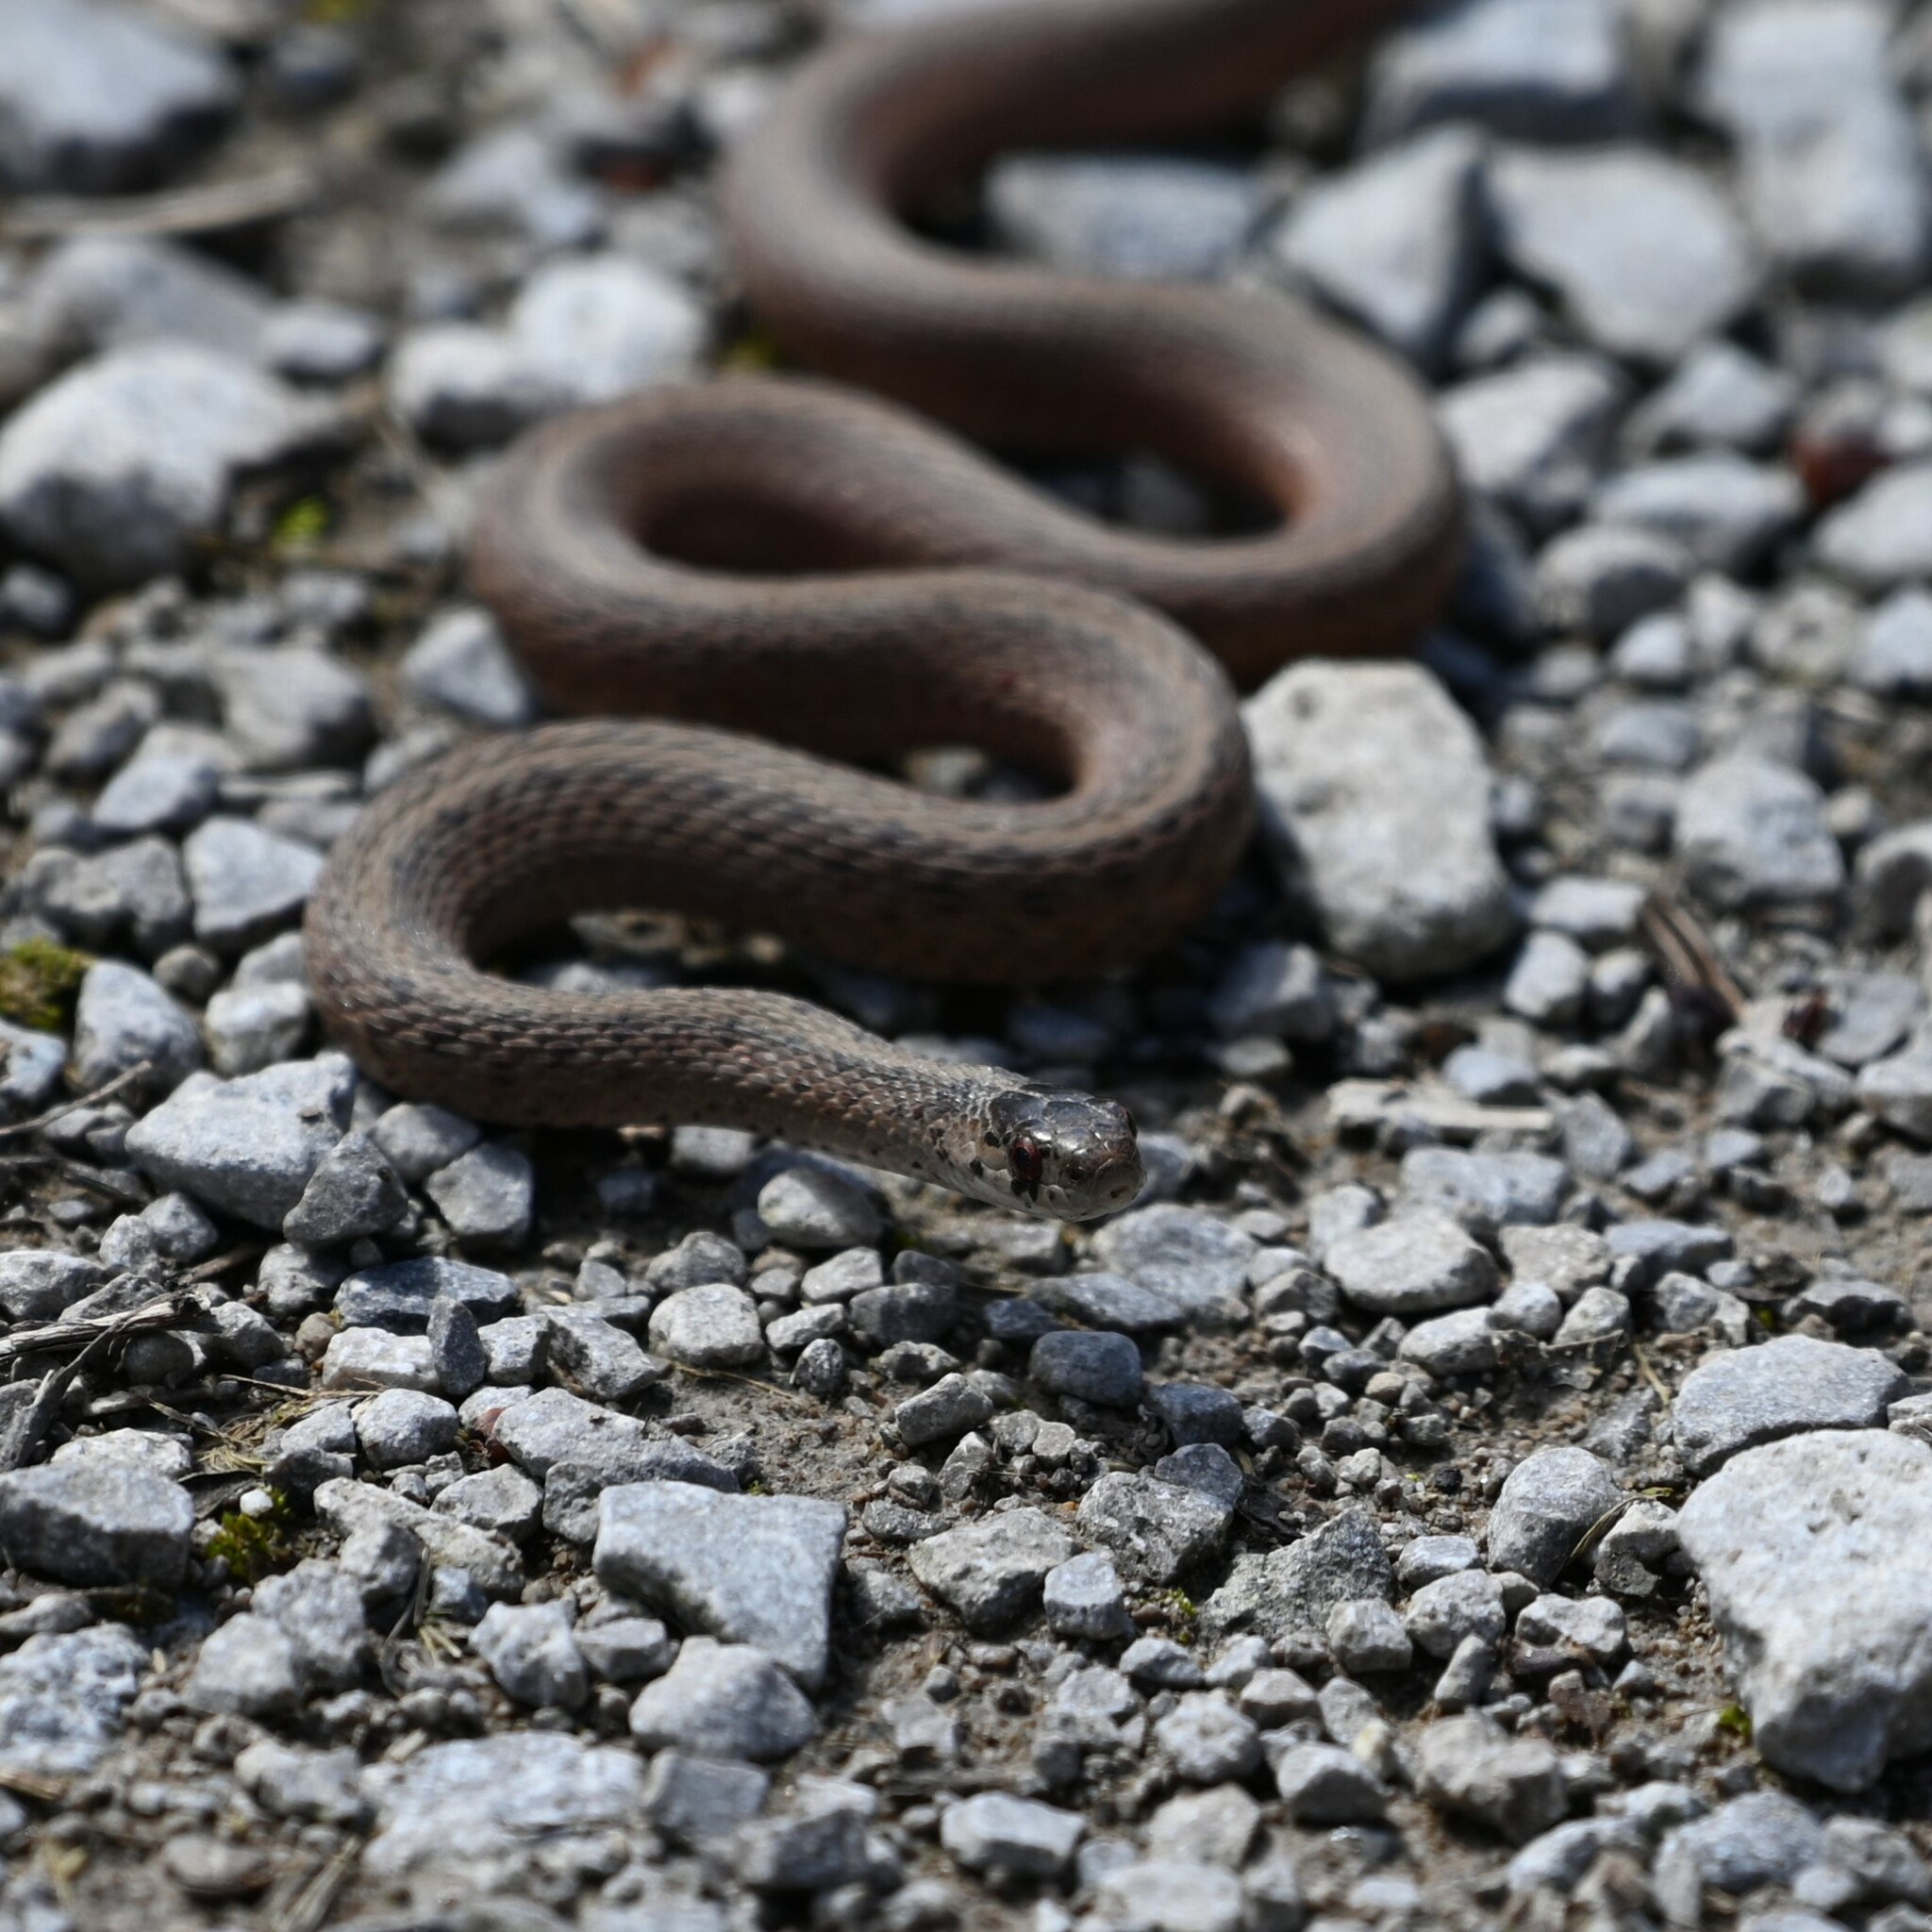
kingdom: Animalia
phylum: Chordata
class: Squamata
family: Colubridae
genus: Storeria
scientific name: Storeria dekayi
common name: (dekay’s) brown snake
